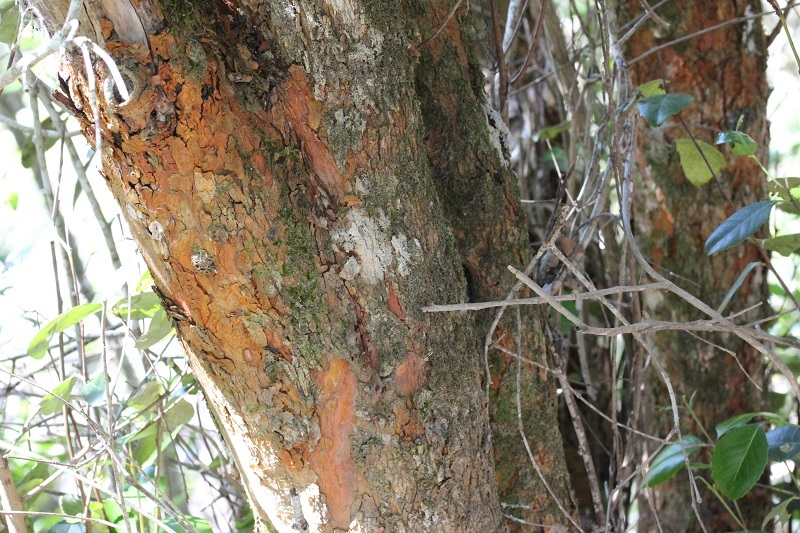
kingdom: Plantae
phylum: Tracheophyta
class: Magnoliopsida
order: Celastrales
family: Celastraceae
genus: Cassine
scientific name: Cassine peragua
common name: Cape saffron
